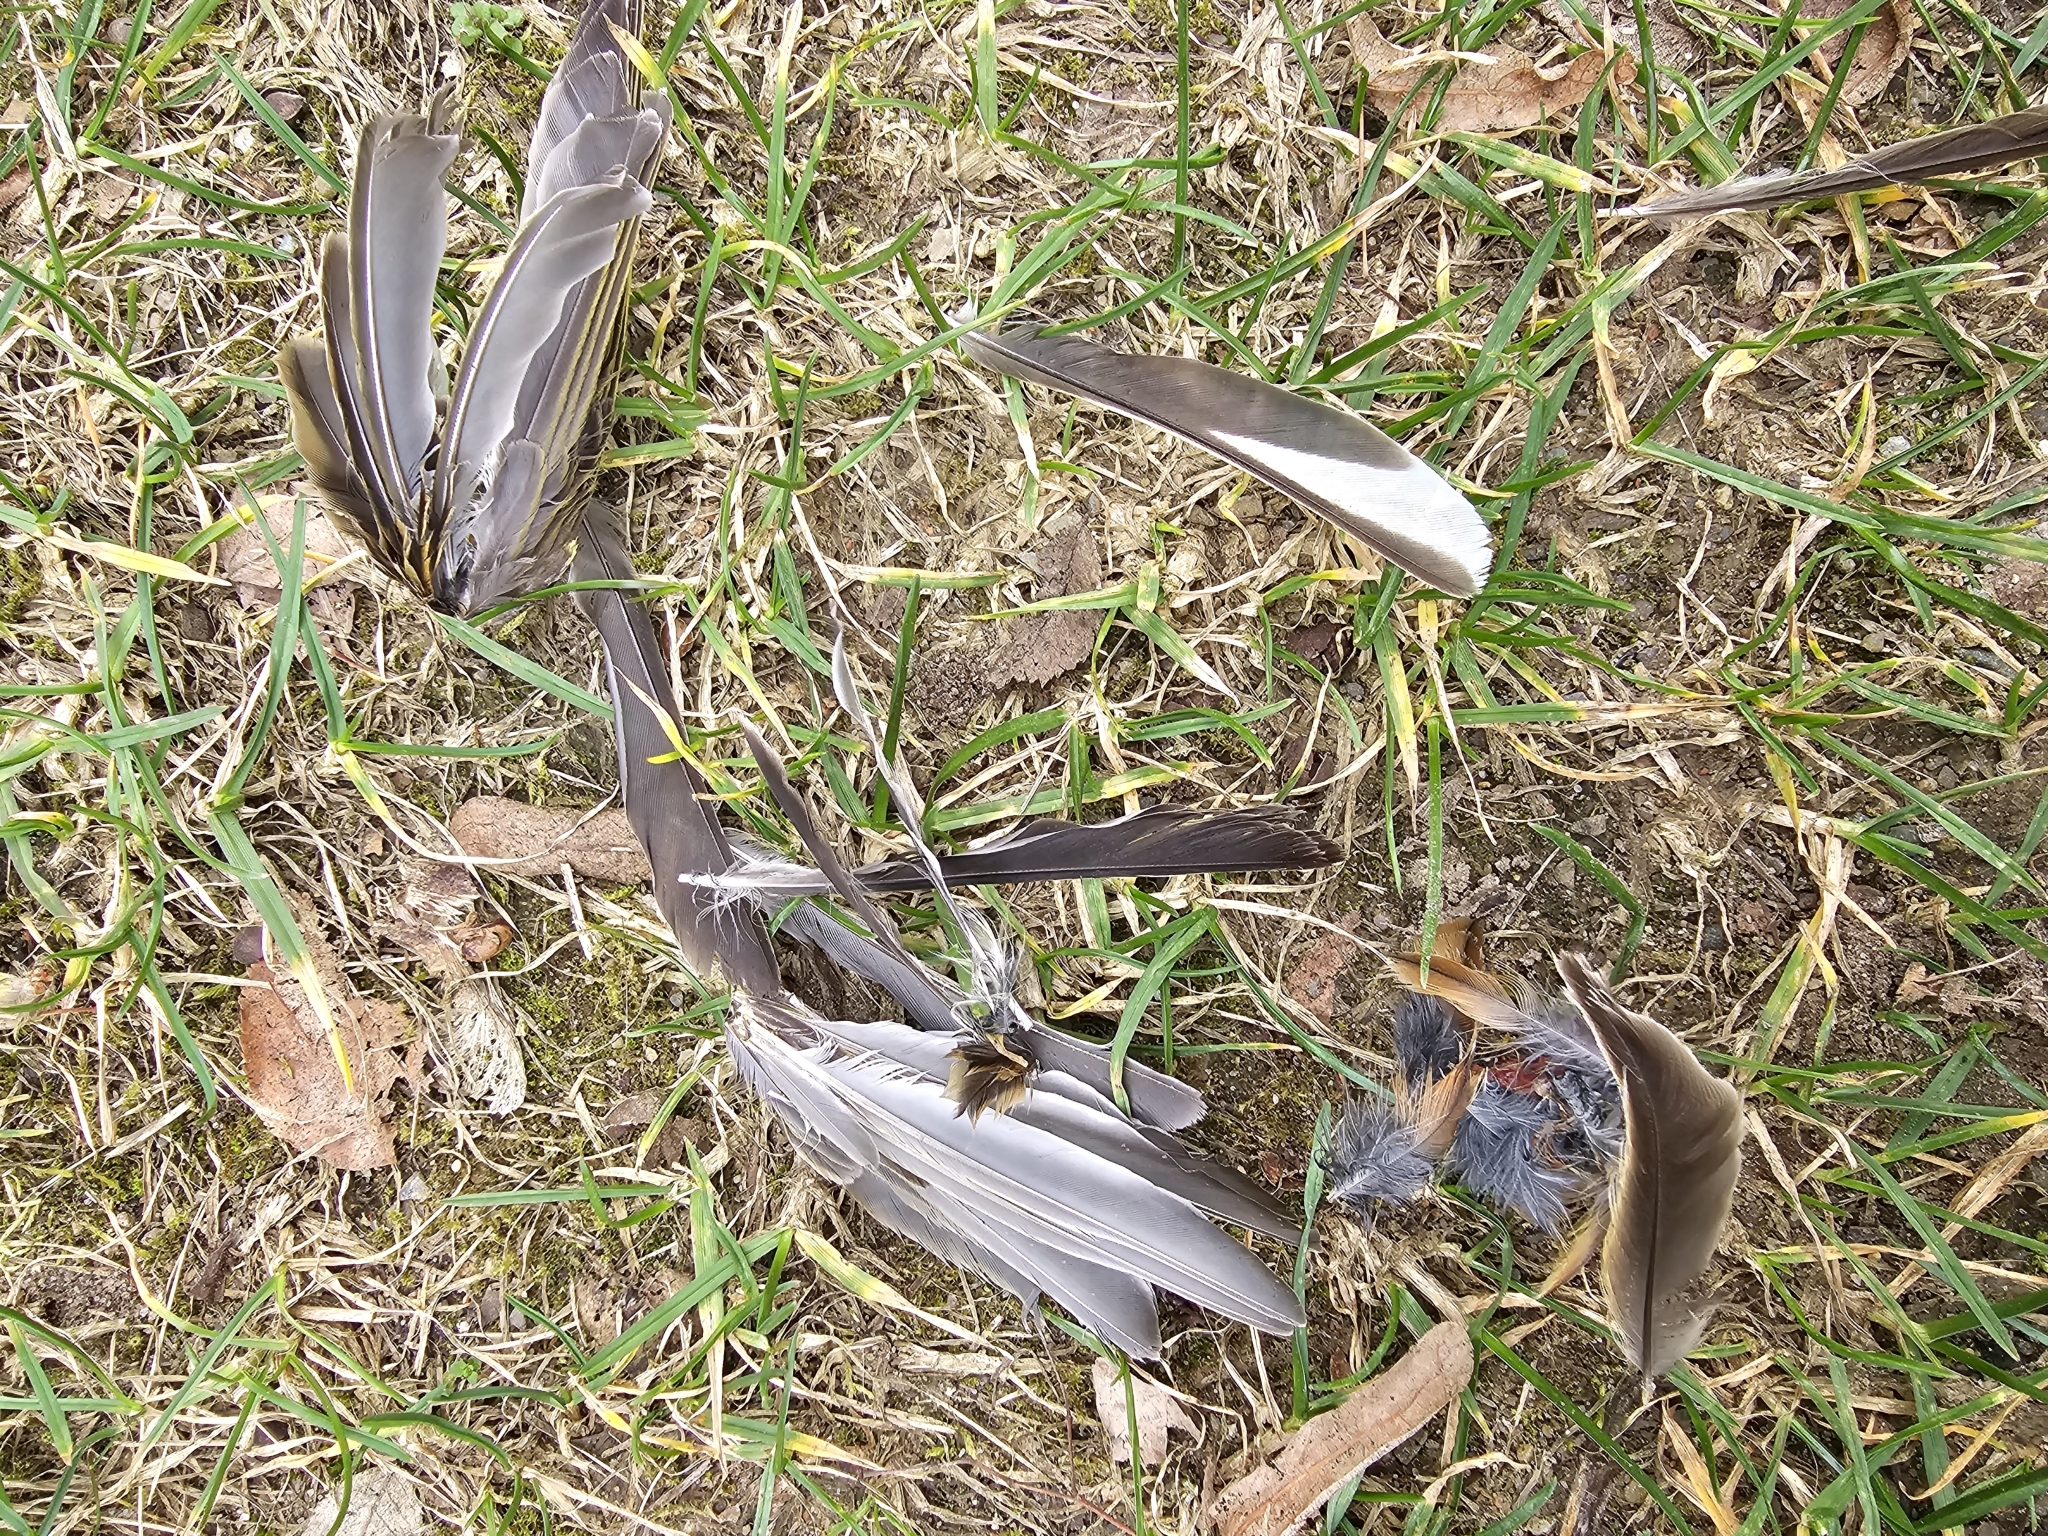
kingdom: Animalia
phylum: Chordata
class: Aves
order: Passeriformes
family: Emberizidae
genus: Emberiza
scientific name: Emberiza citrinella
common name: Yellowhammer
